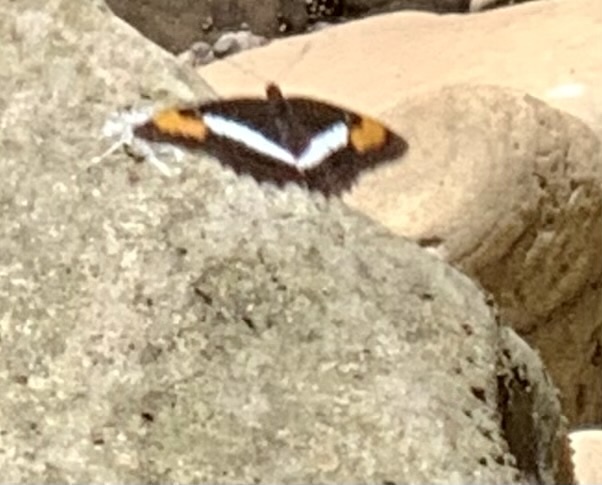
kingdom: Animalia
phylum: Arthropoda
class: Insecta
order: Lepidoptera
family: Nymphalidae
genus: Limenitis
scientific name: Limenitis pithys
